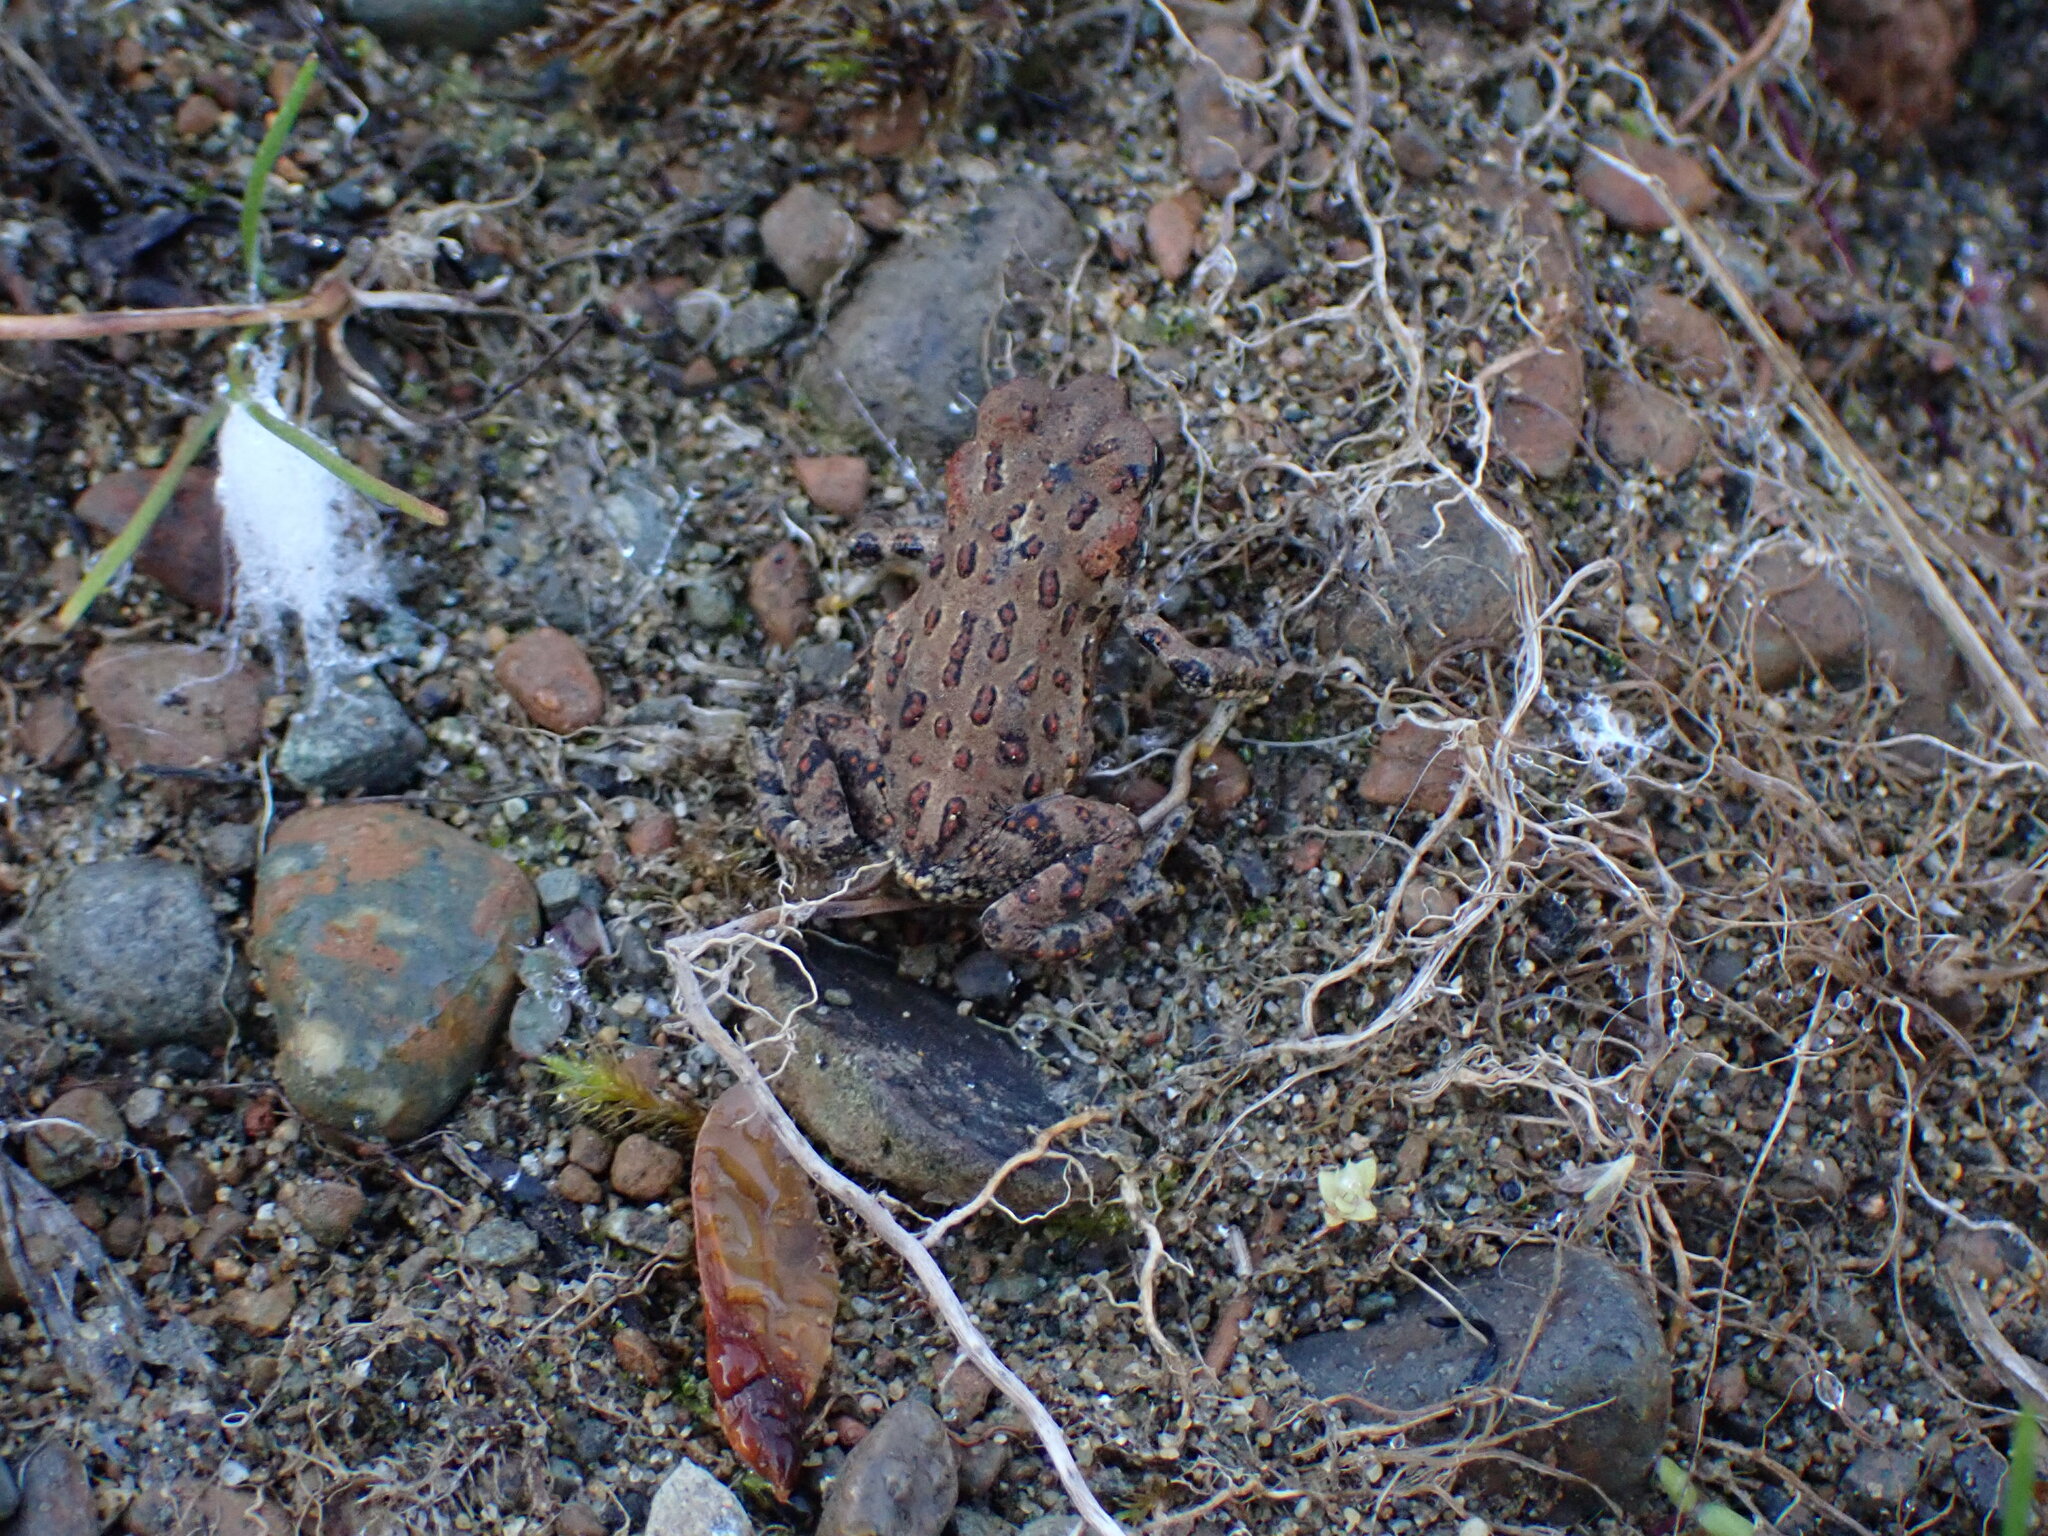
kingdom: Animalia
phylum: Chordata
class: Amphibia
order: Anura
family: Bufonidae
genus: Anaxyrus
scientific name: Anaxyrus boreas
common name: Western toad
